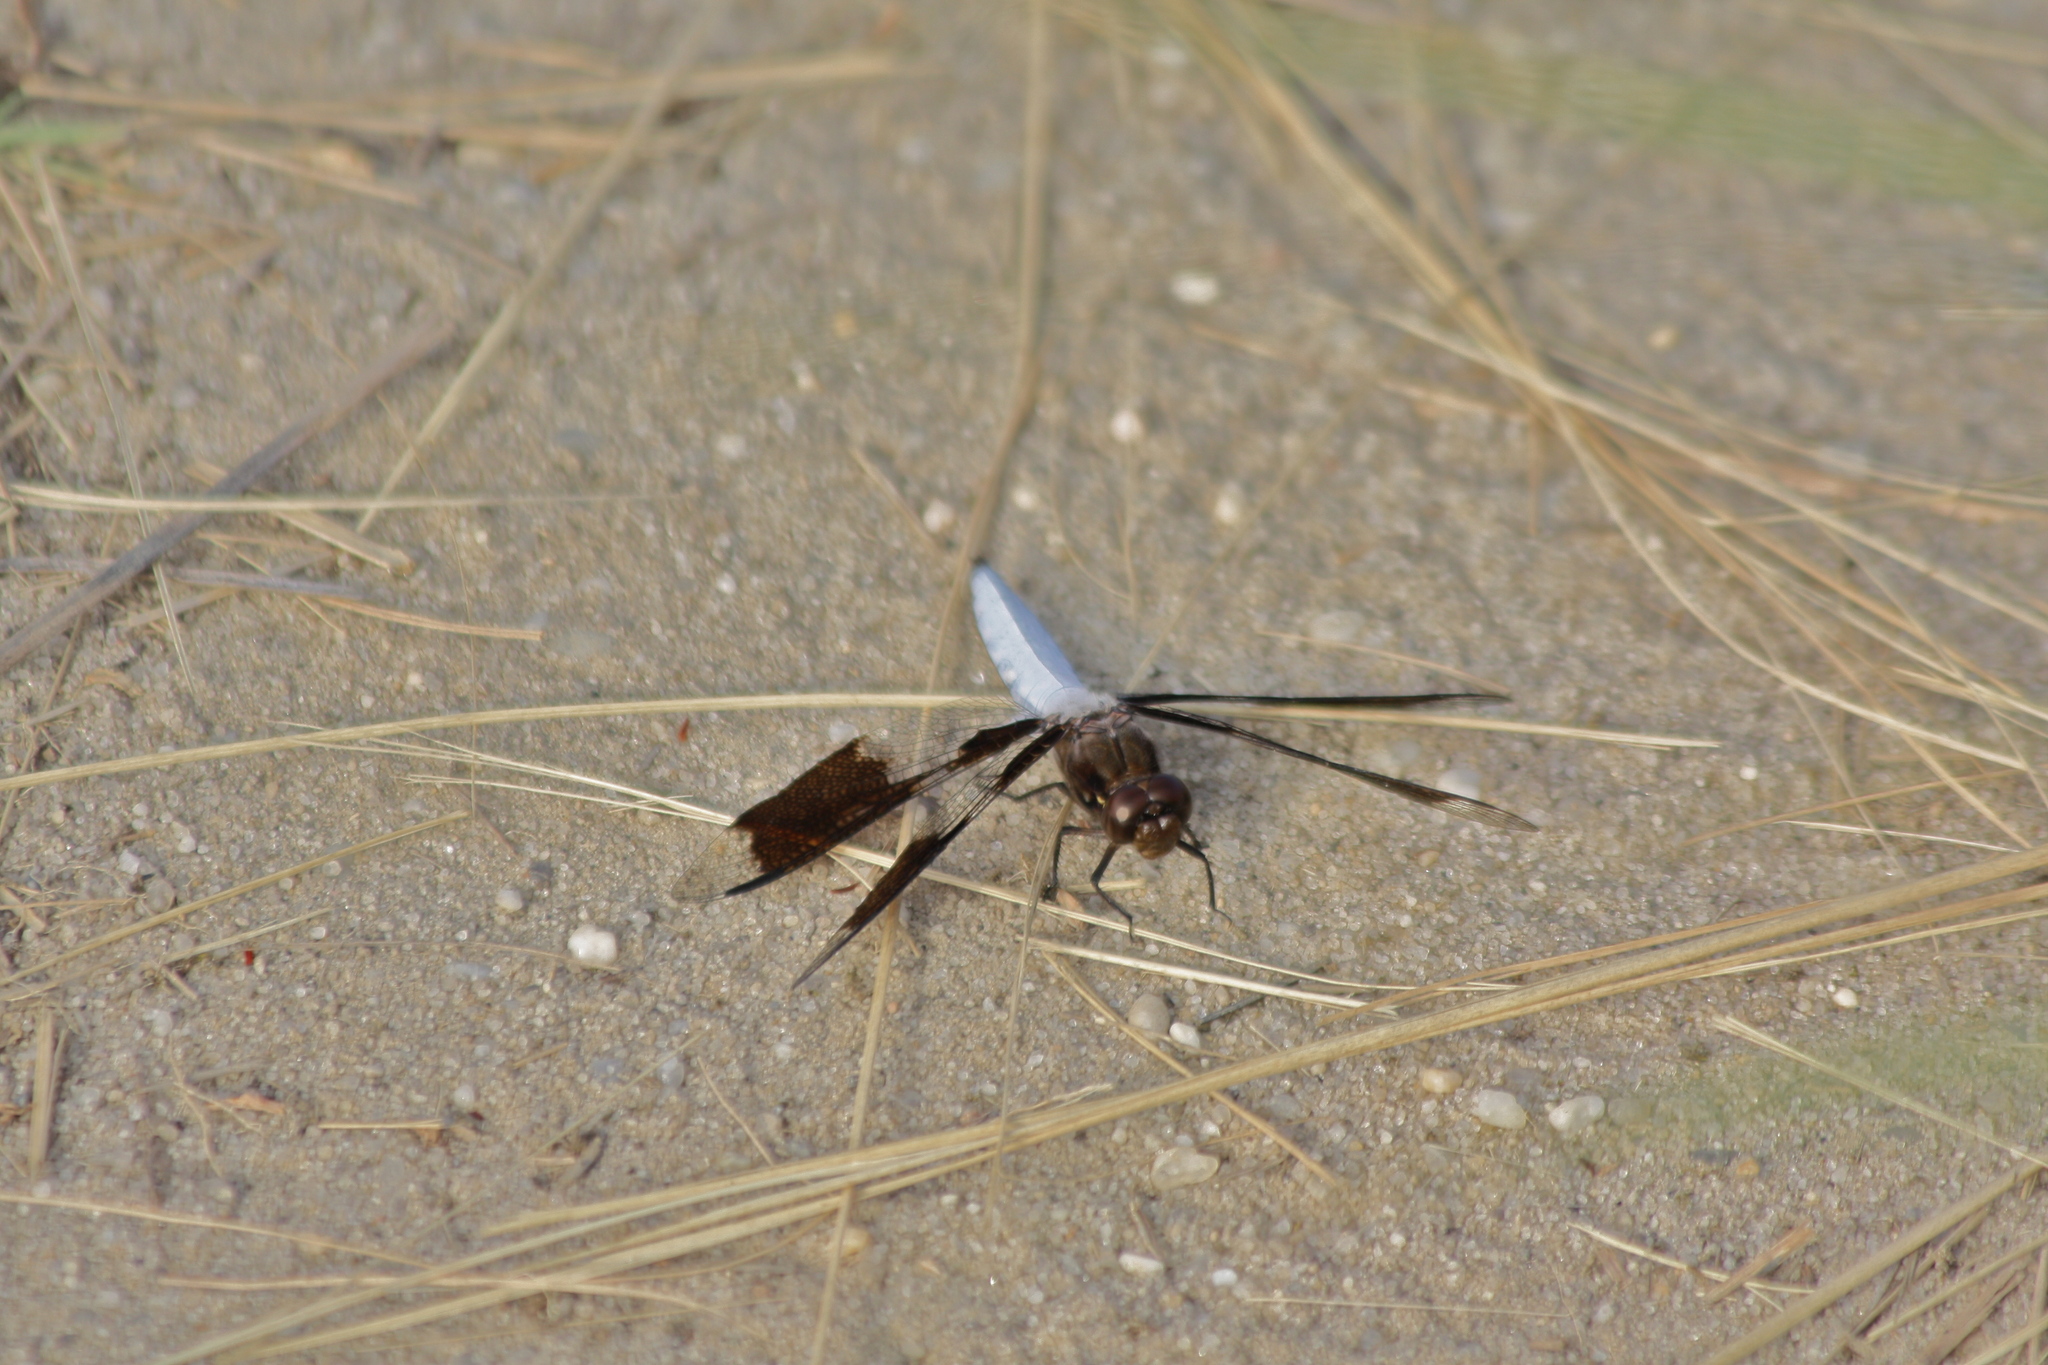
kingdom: Animalia
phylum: Arthropoda
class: Insecta
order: Odonata
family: Libellulidae
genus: Plathemis
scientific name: Plathemis lydia
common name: Common whitetail
